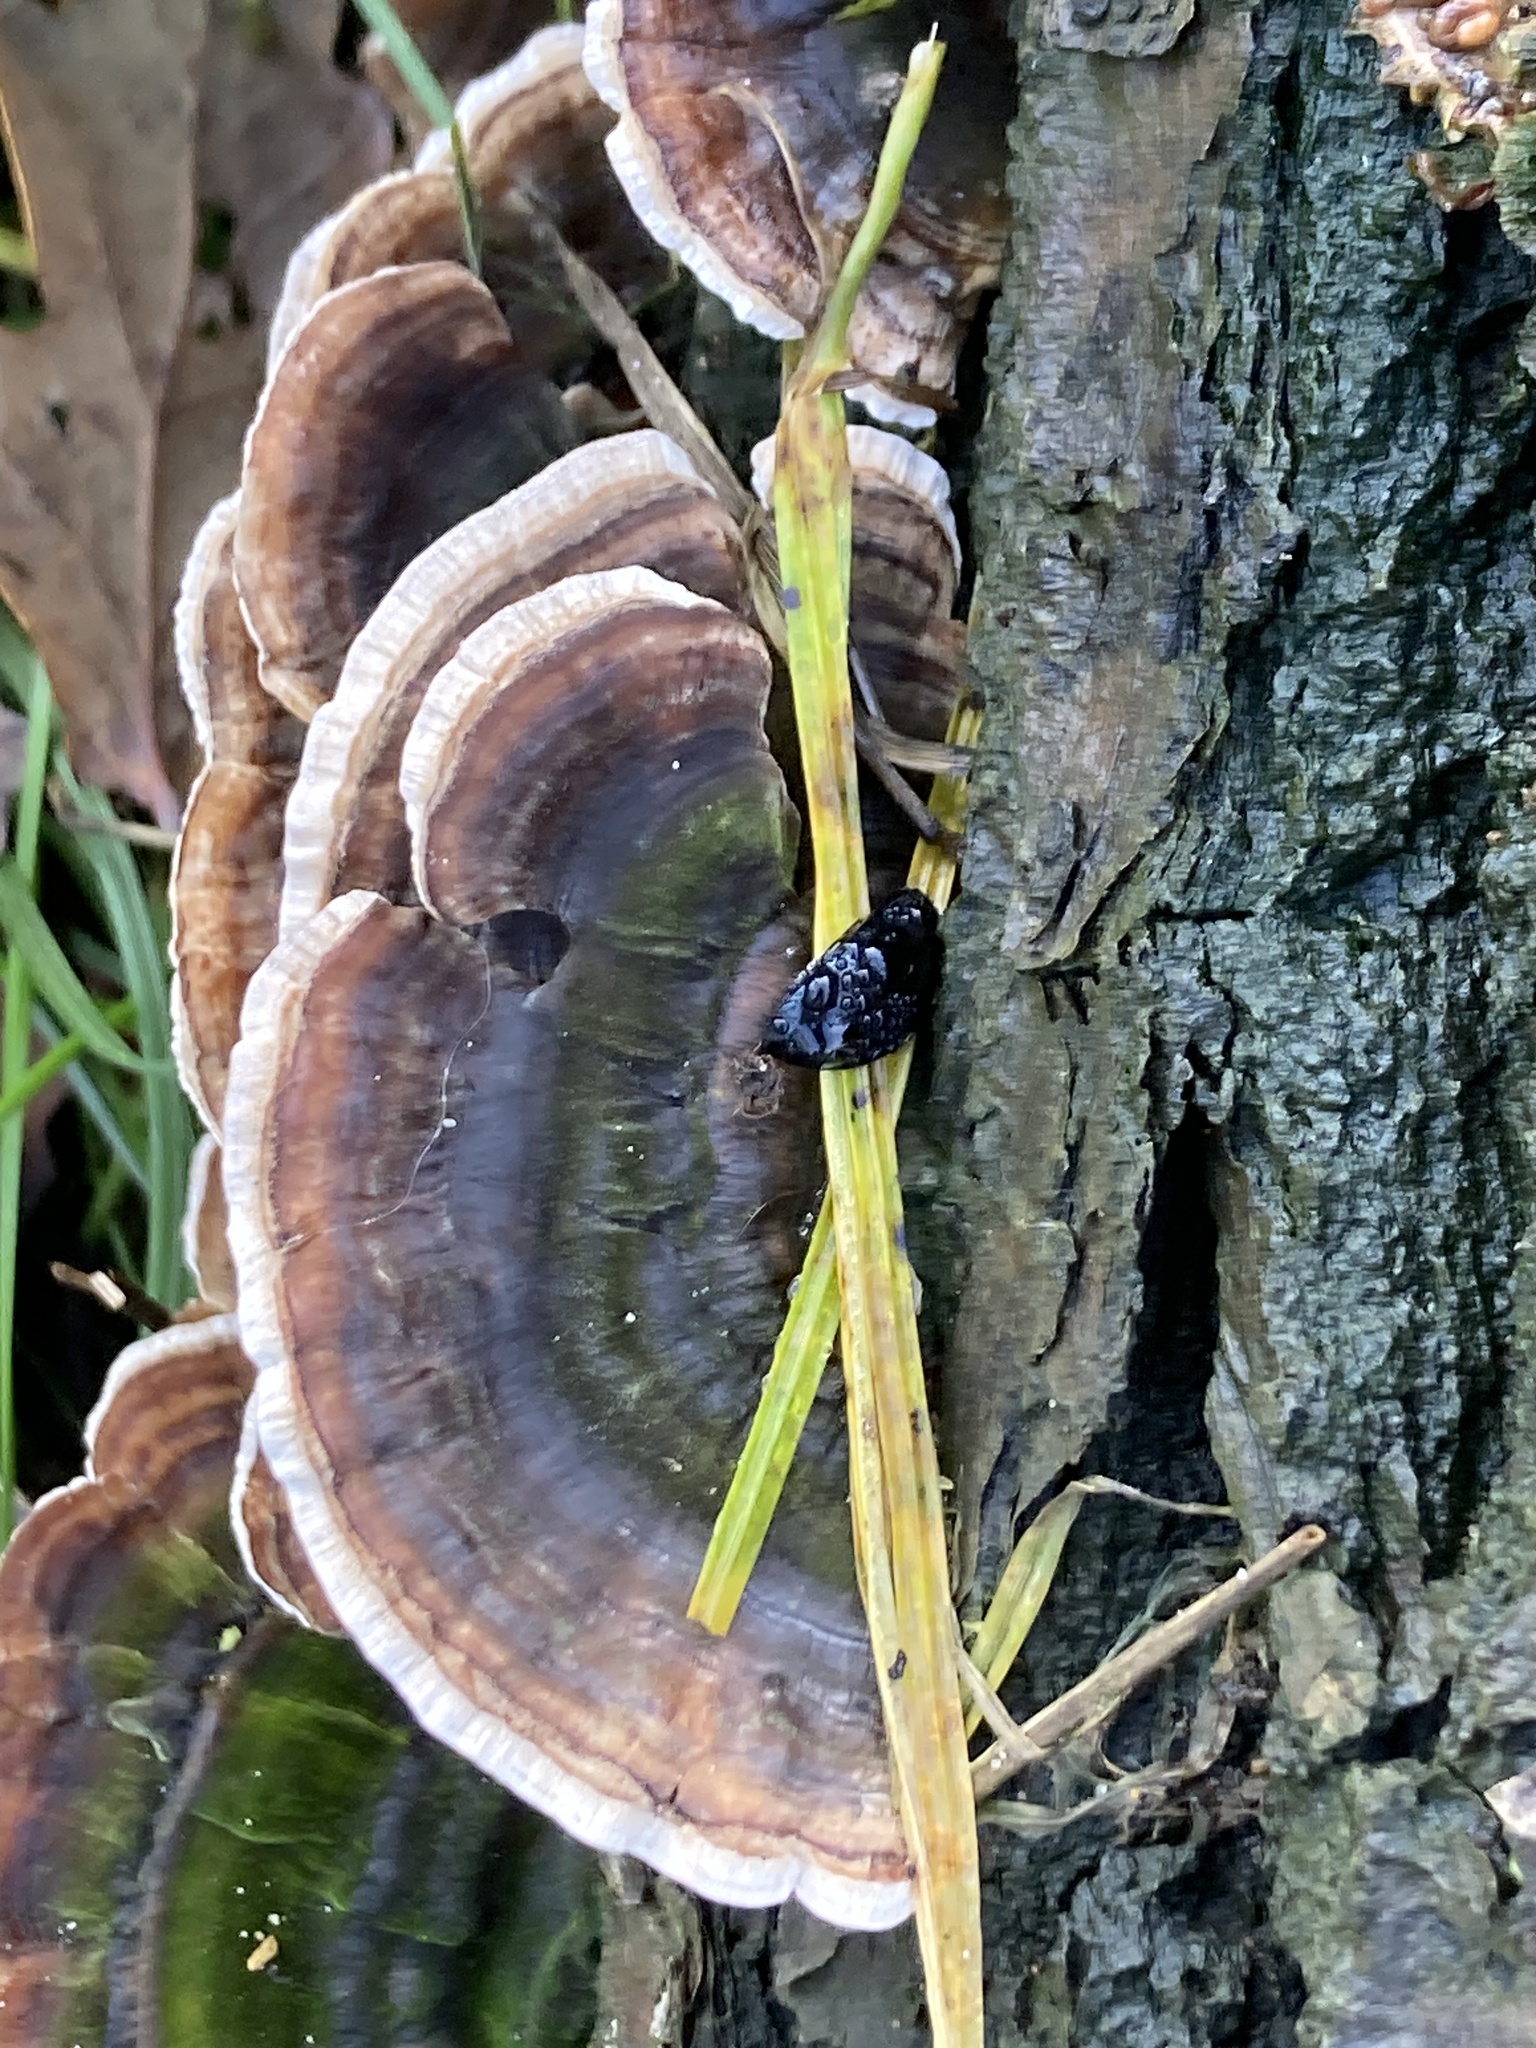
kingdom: Fungi
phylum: Basidiomycota
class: Agaricomycetes
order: Polyporales
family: Polyporaceae
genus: Trametes
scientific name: Trametes versicolor
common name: Turkeytail
